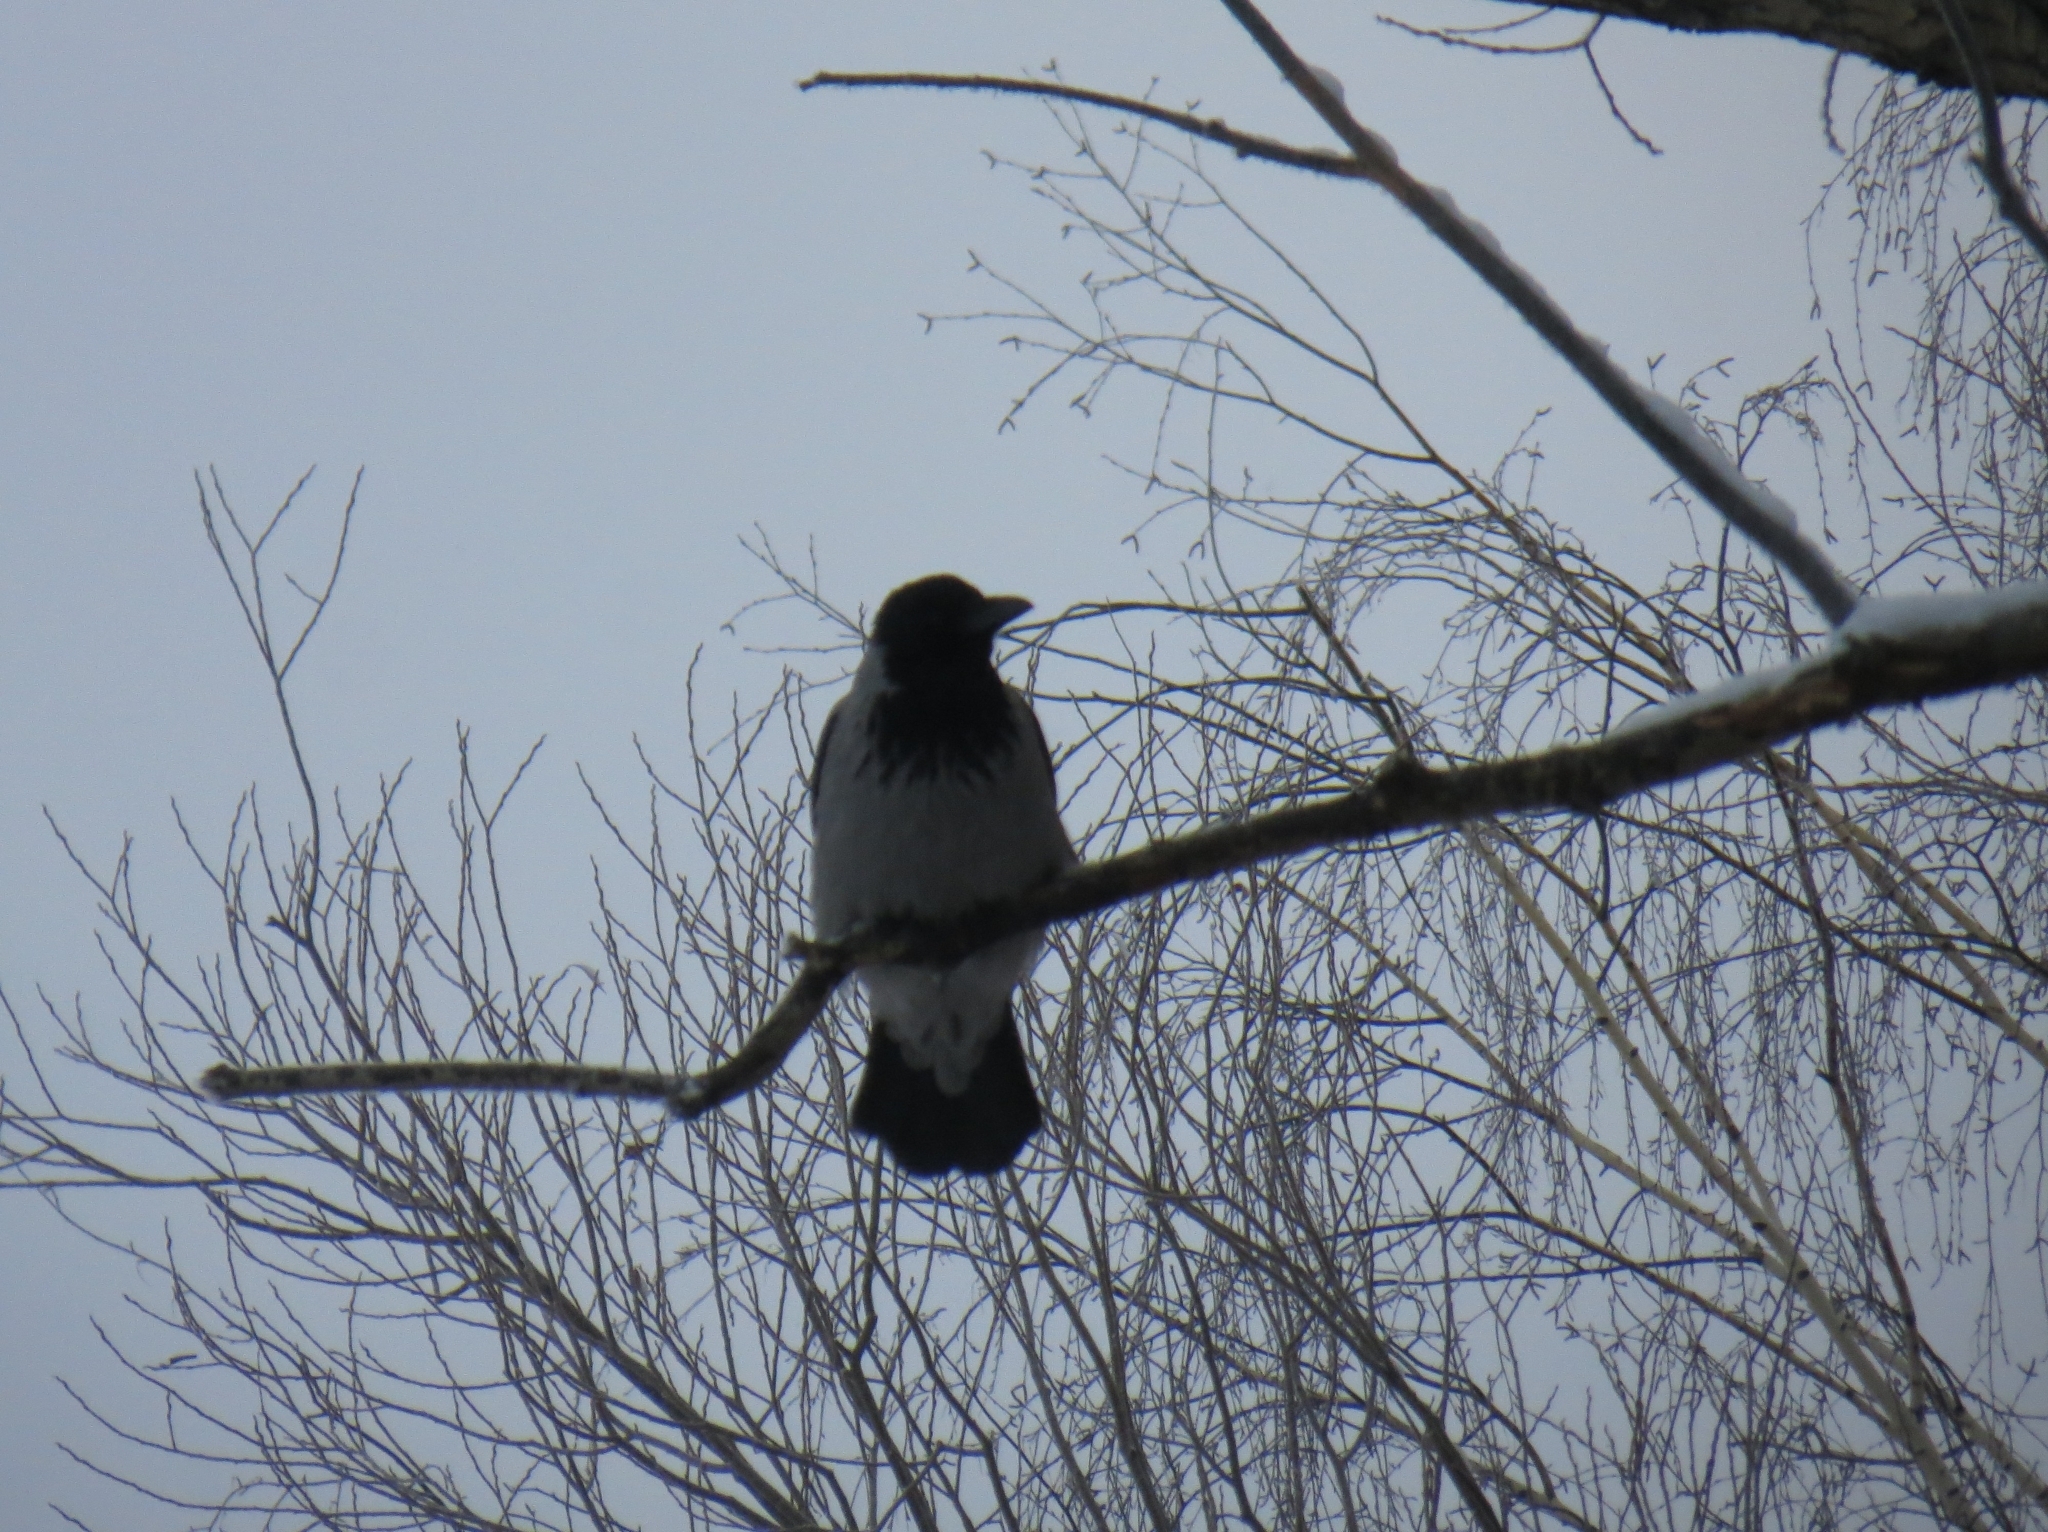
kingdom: Animalia
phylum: Chordata
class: Aves
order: Passeriformes
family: Corvidae
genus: Corvus
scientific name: Corvus cornix
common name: Hooded crow
